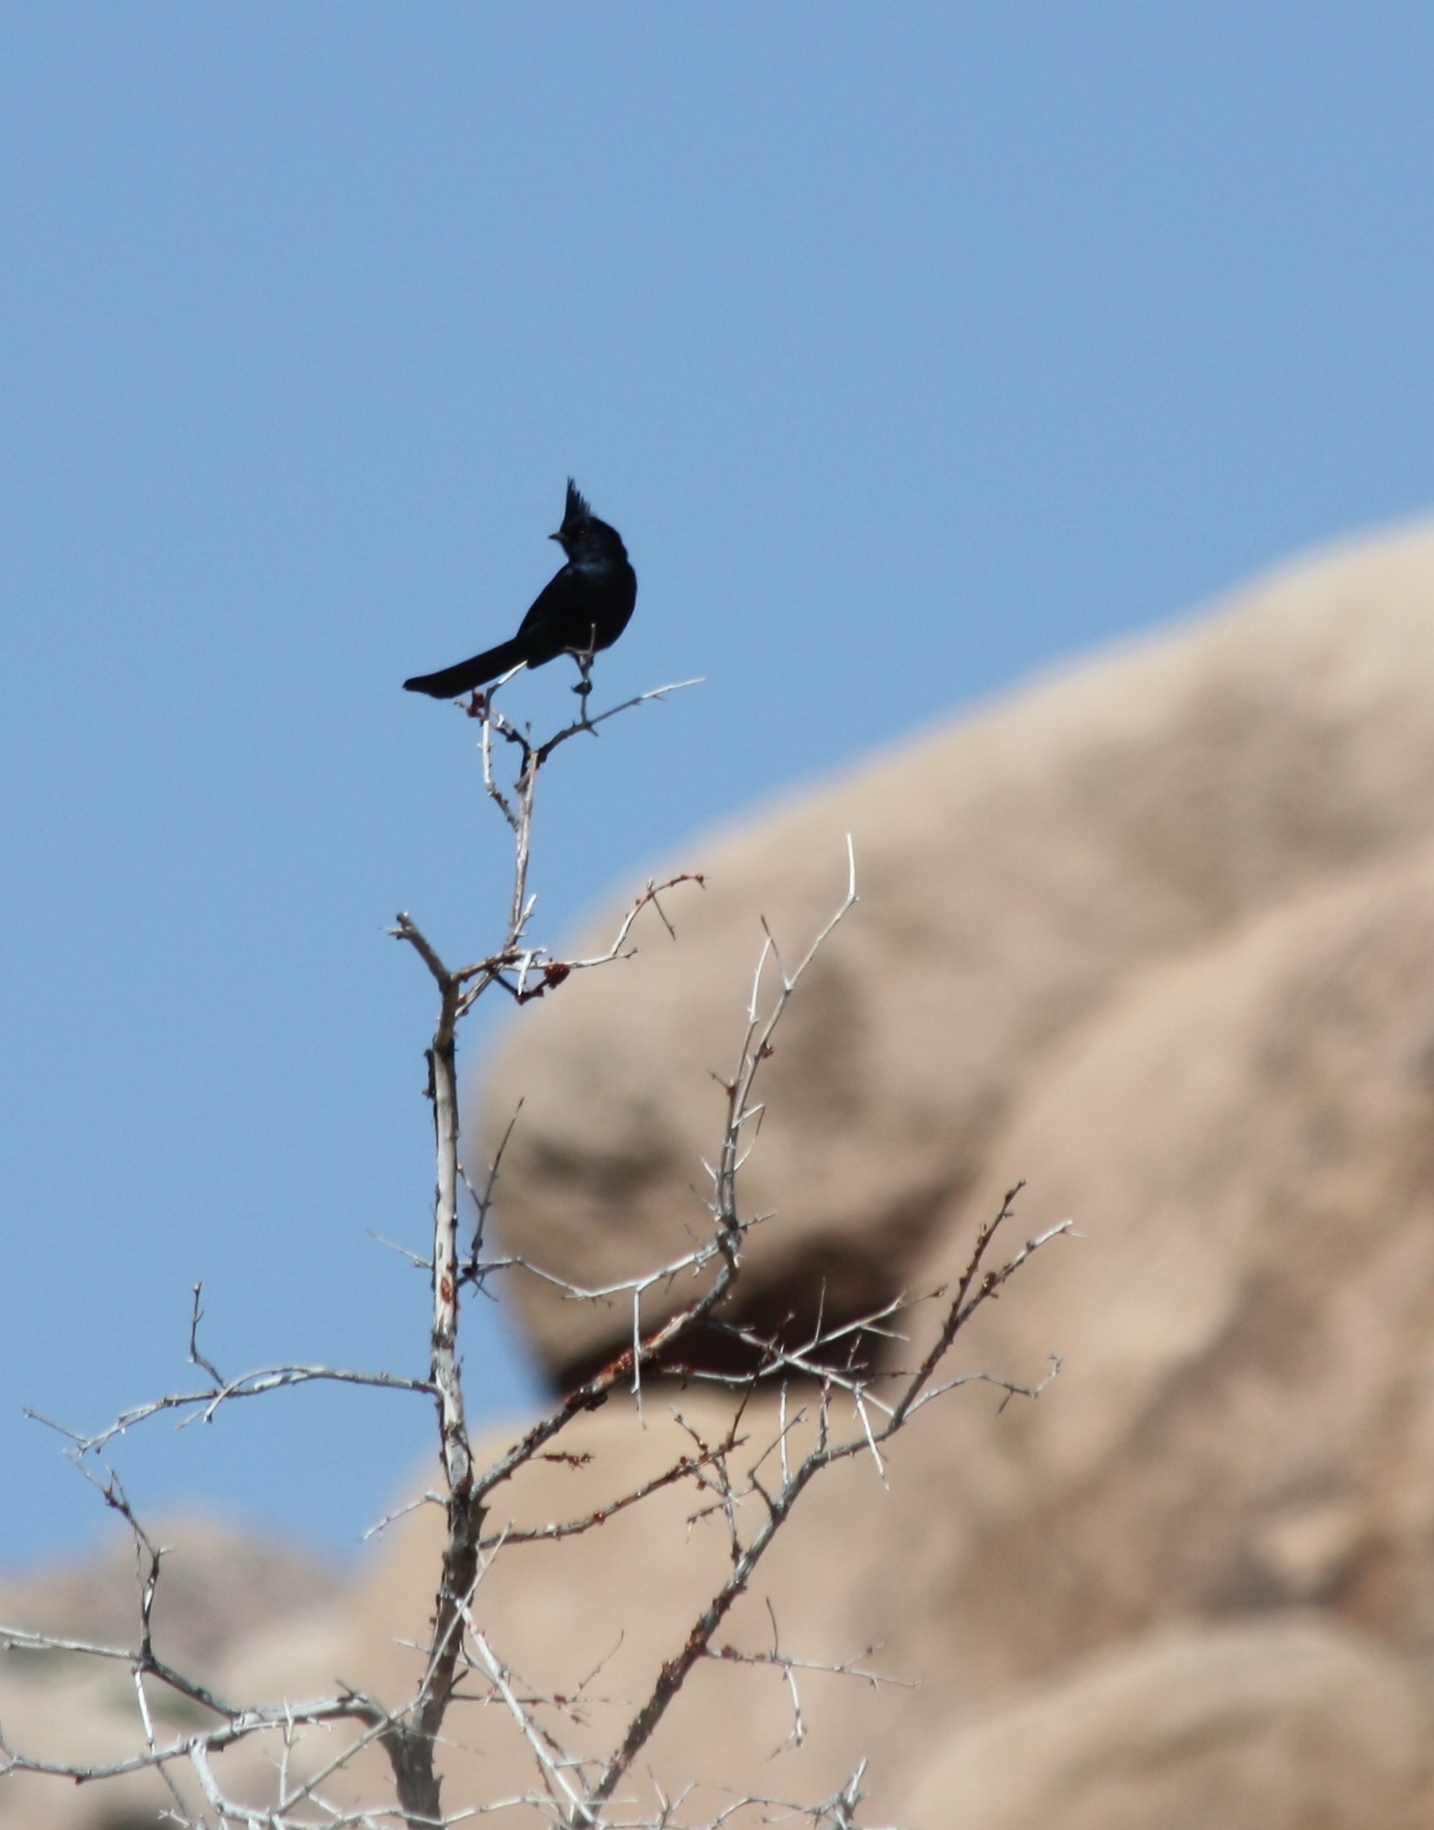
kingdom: Animalia
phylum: Chordata
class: Aves
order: Passeriformes
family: Ptilogonatidae
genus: Phainopepla
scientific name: Phainopepla nitens
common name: Phainopepla
